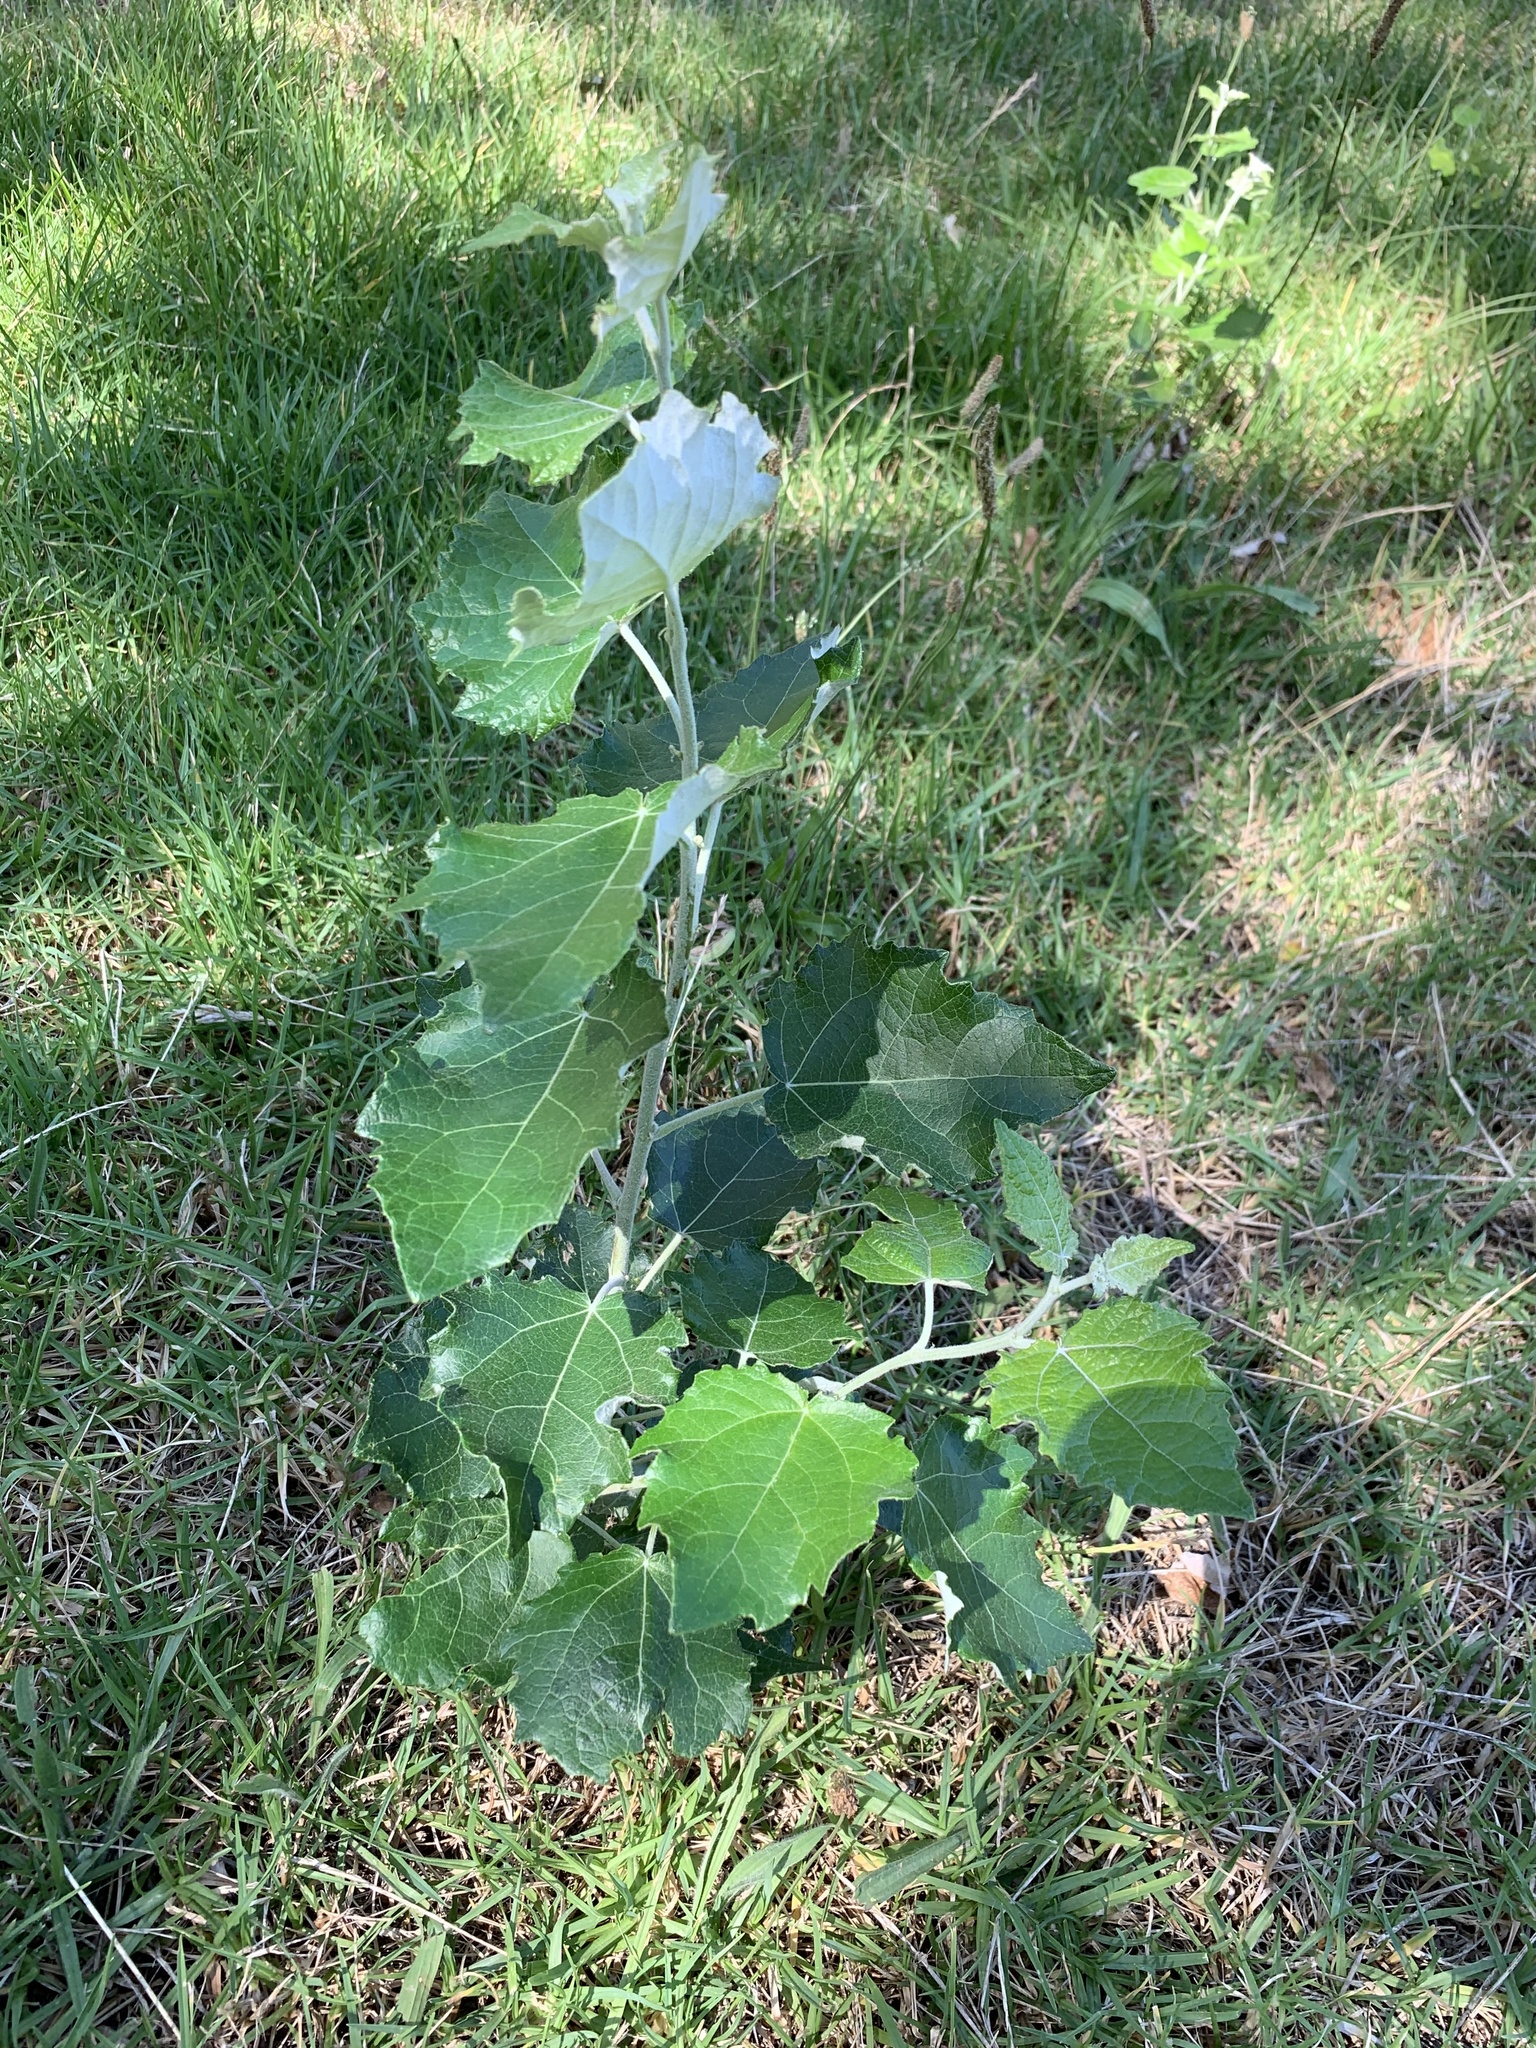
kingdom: Plantae
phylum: Tracheophyta
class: Magnoliopsida
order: Malpighiales
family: Salicaceae
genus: Populus
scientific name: Populus canescens
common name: Gray poplar
